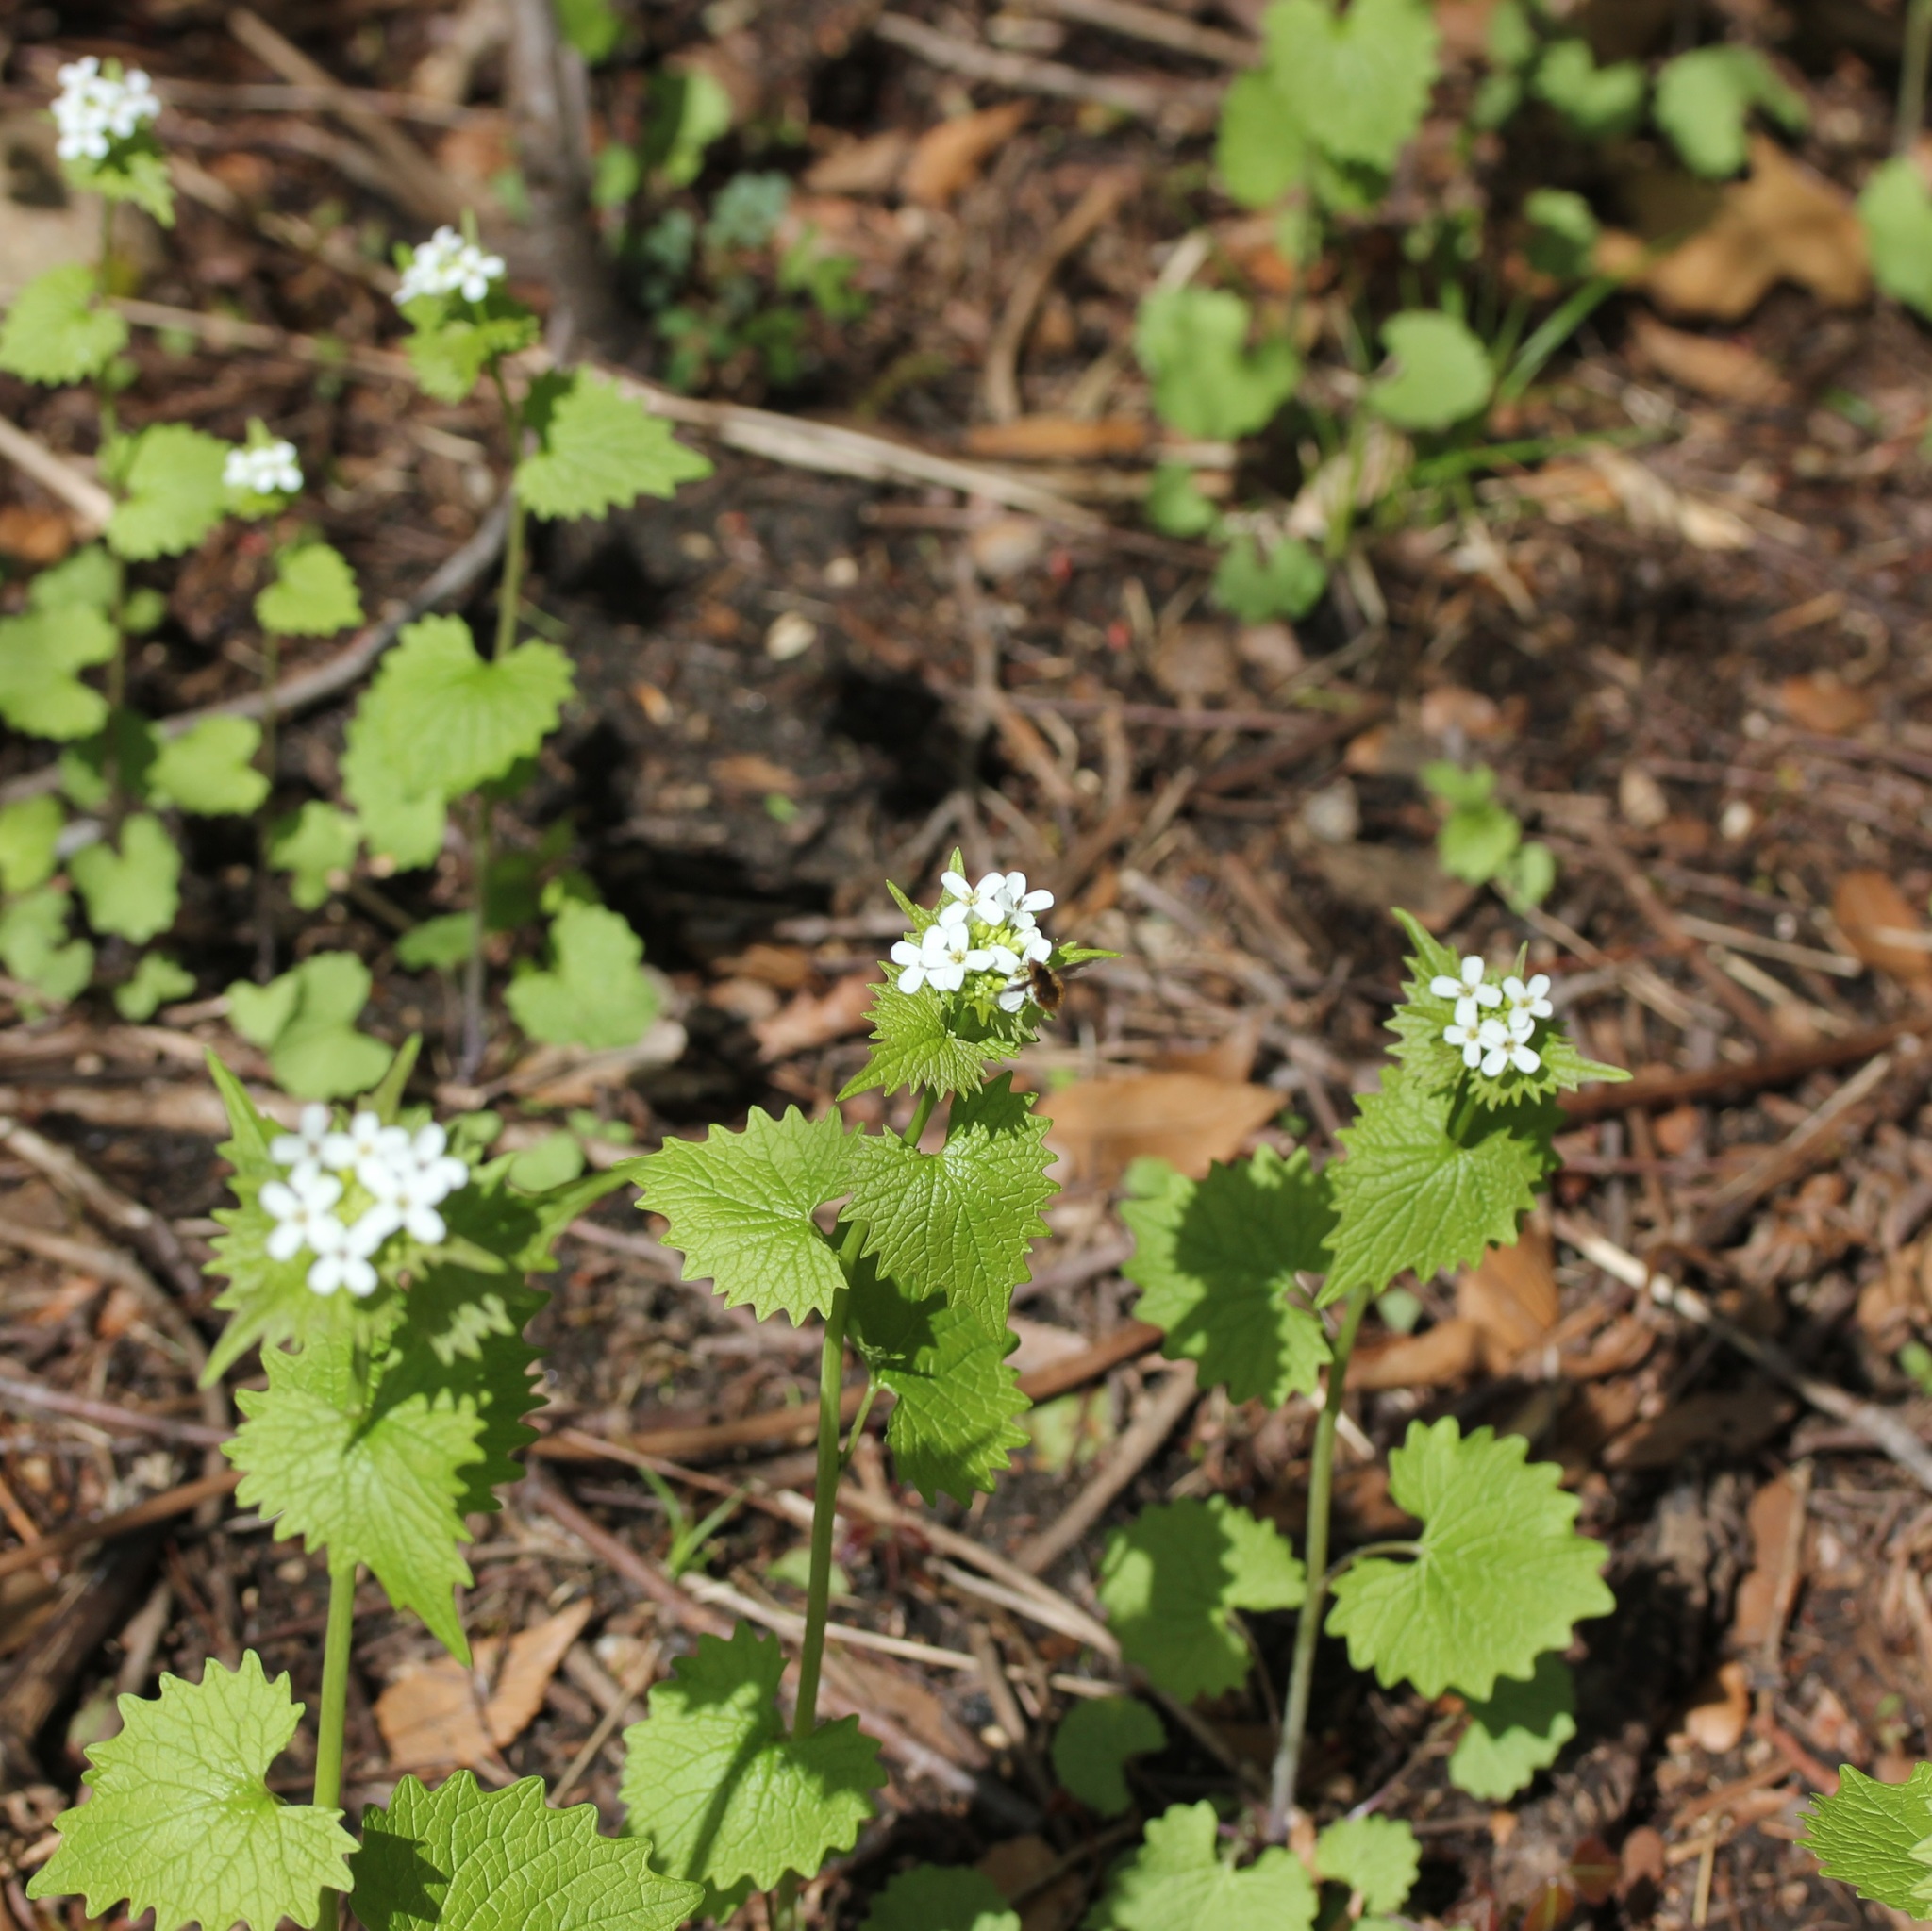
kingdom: Plantae
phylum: Tracheophyta
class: Magnoliopsida
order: Brassicales
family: Brassicaceae
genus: Alliaria
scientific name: Alliaria petiolata
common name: Garlic mustard
